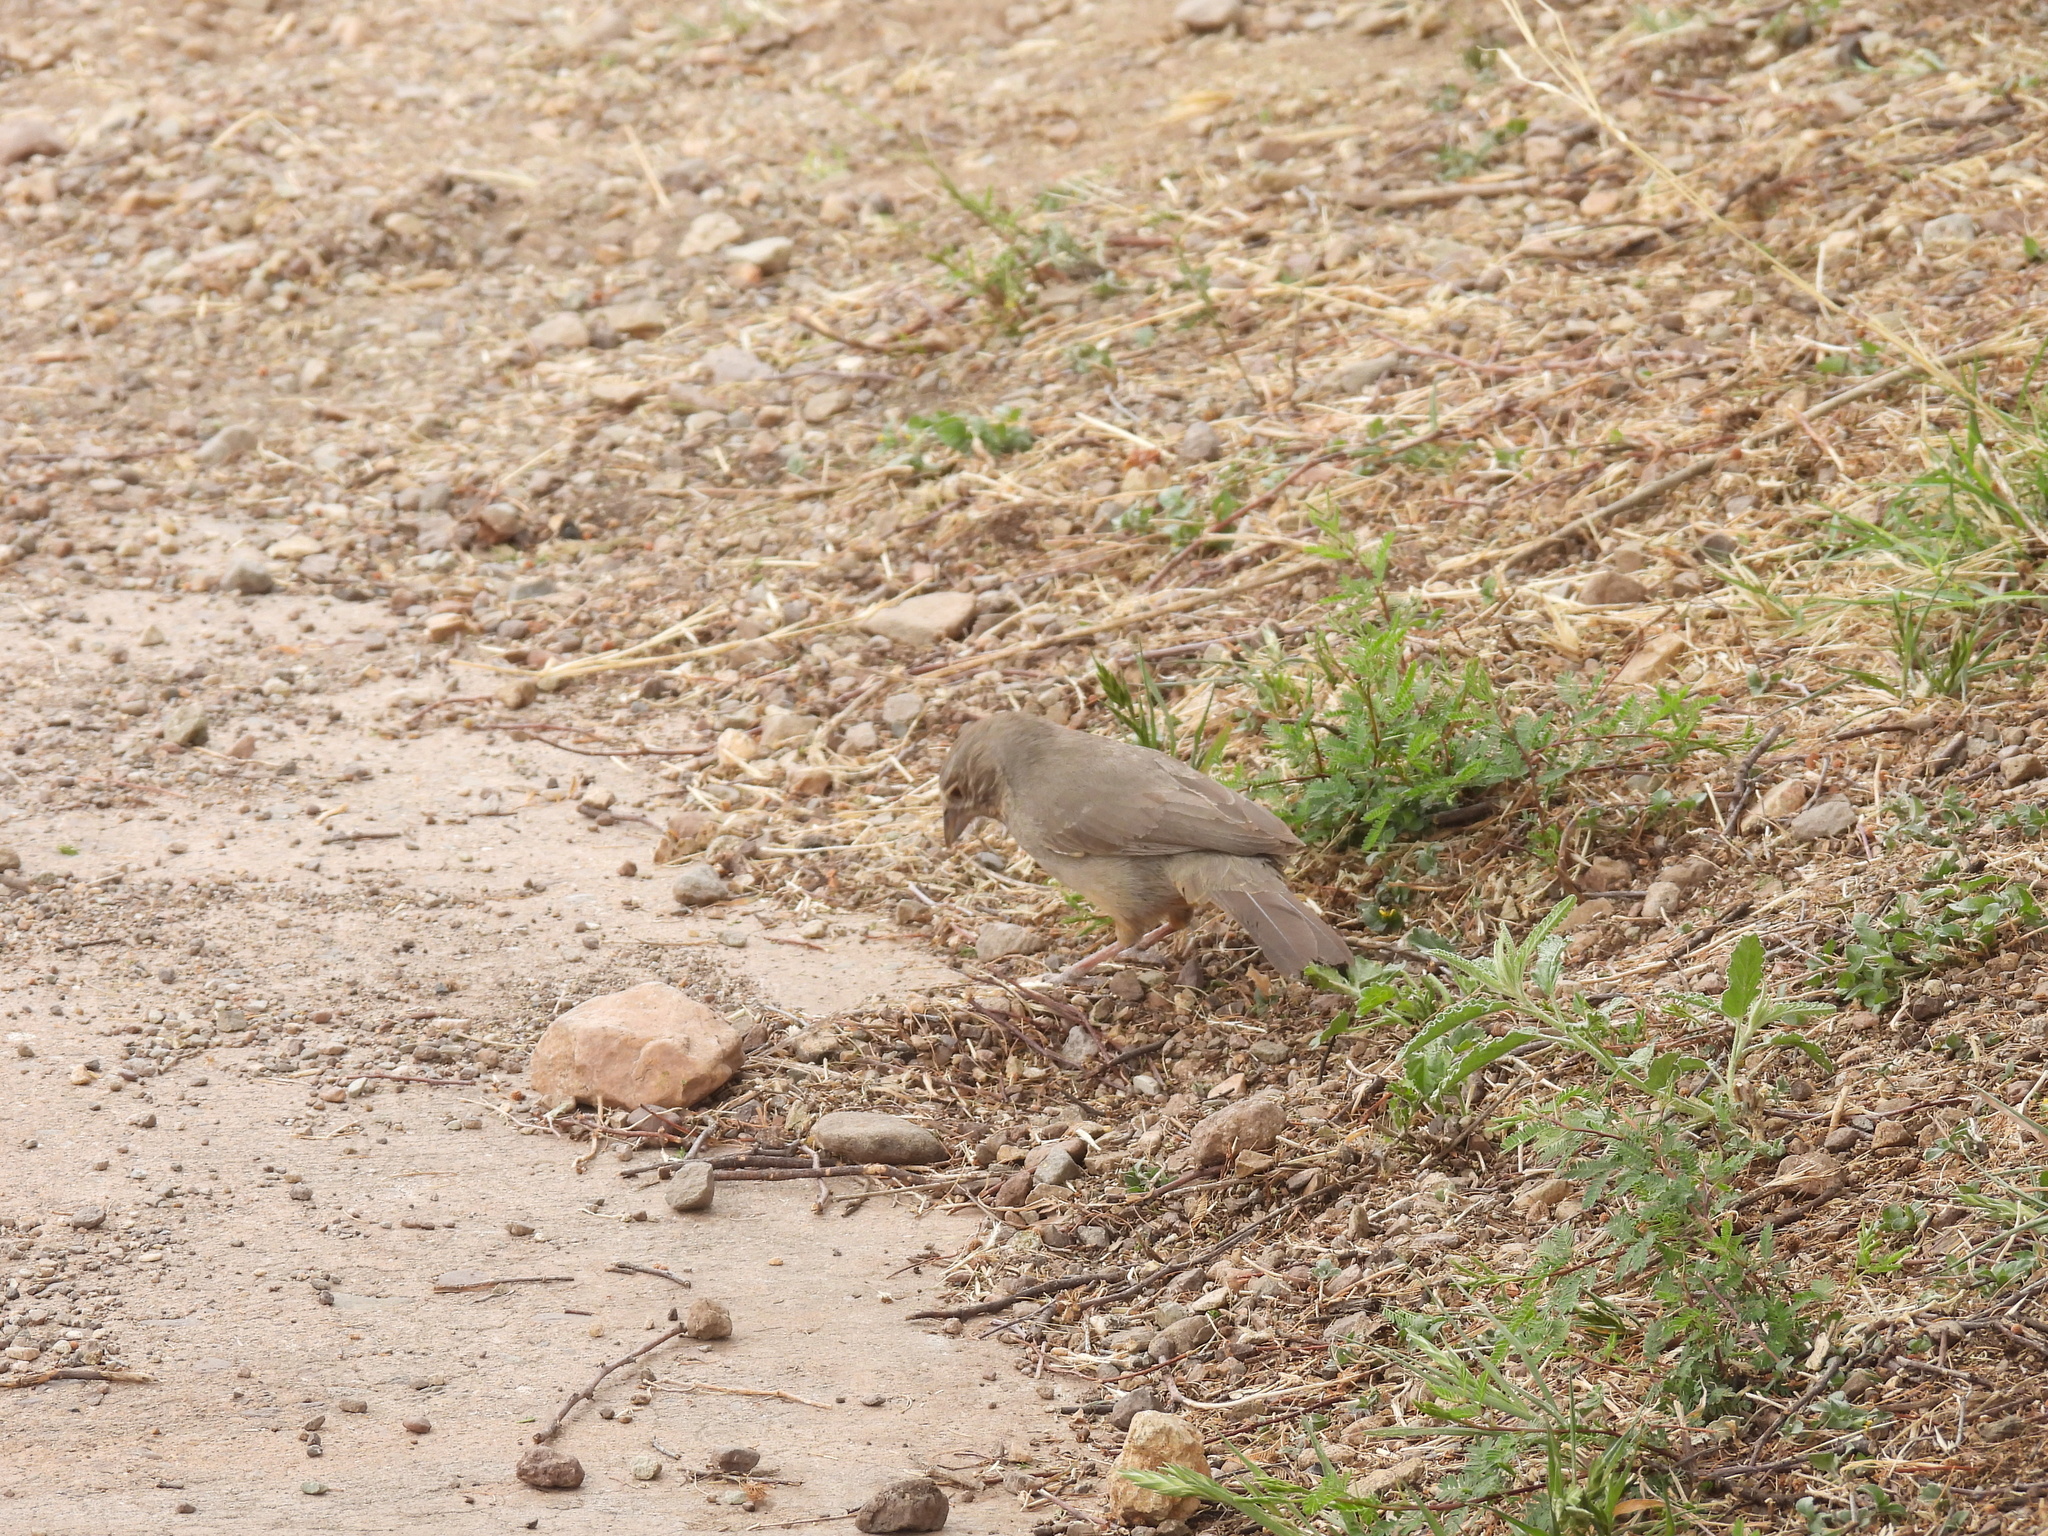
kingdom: Animalia
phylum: Chordata
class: Aves
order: Passeriformes
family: Passerellidae
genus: Melozone
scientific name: Melozone fusca
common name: Canyon towhee
